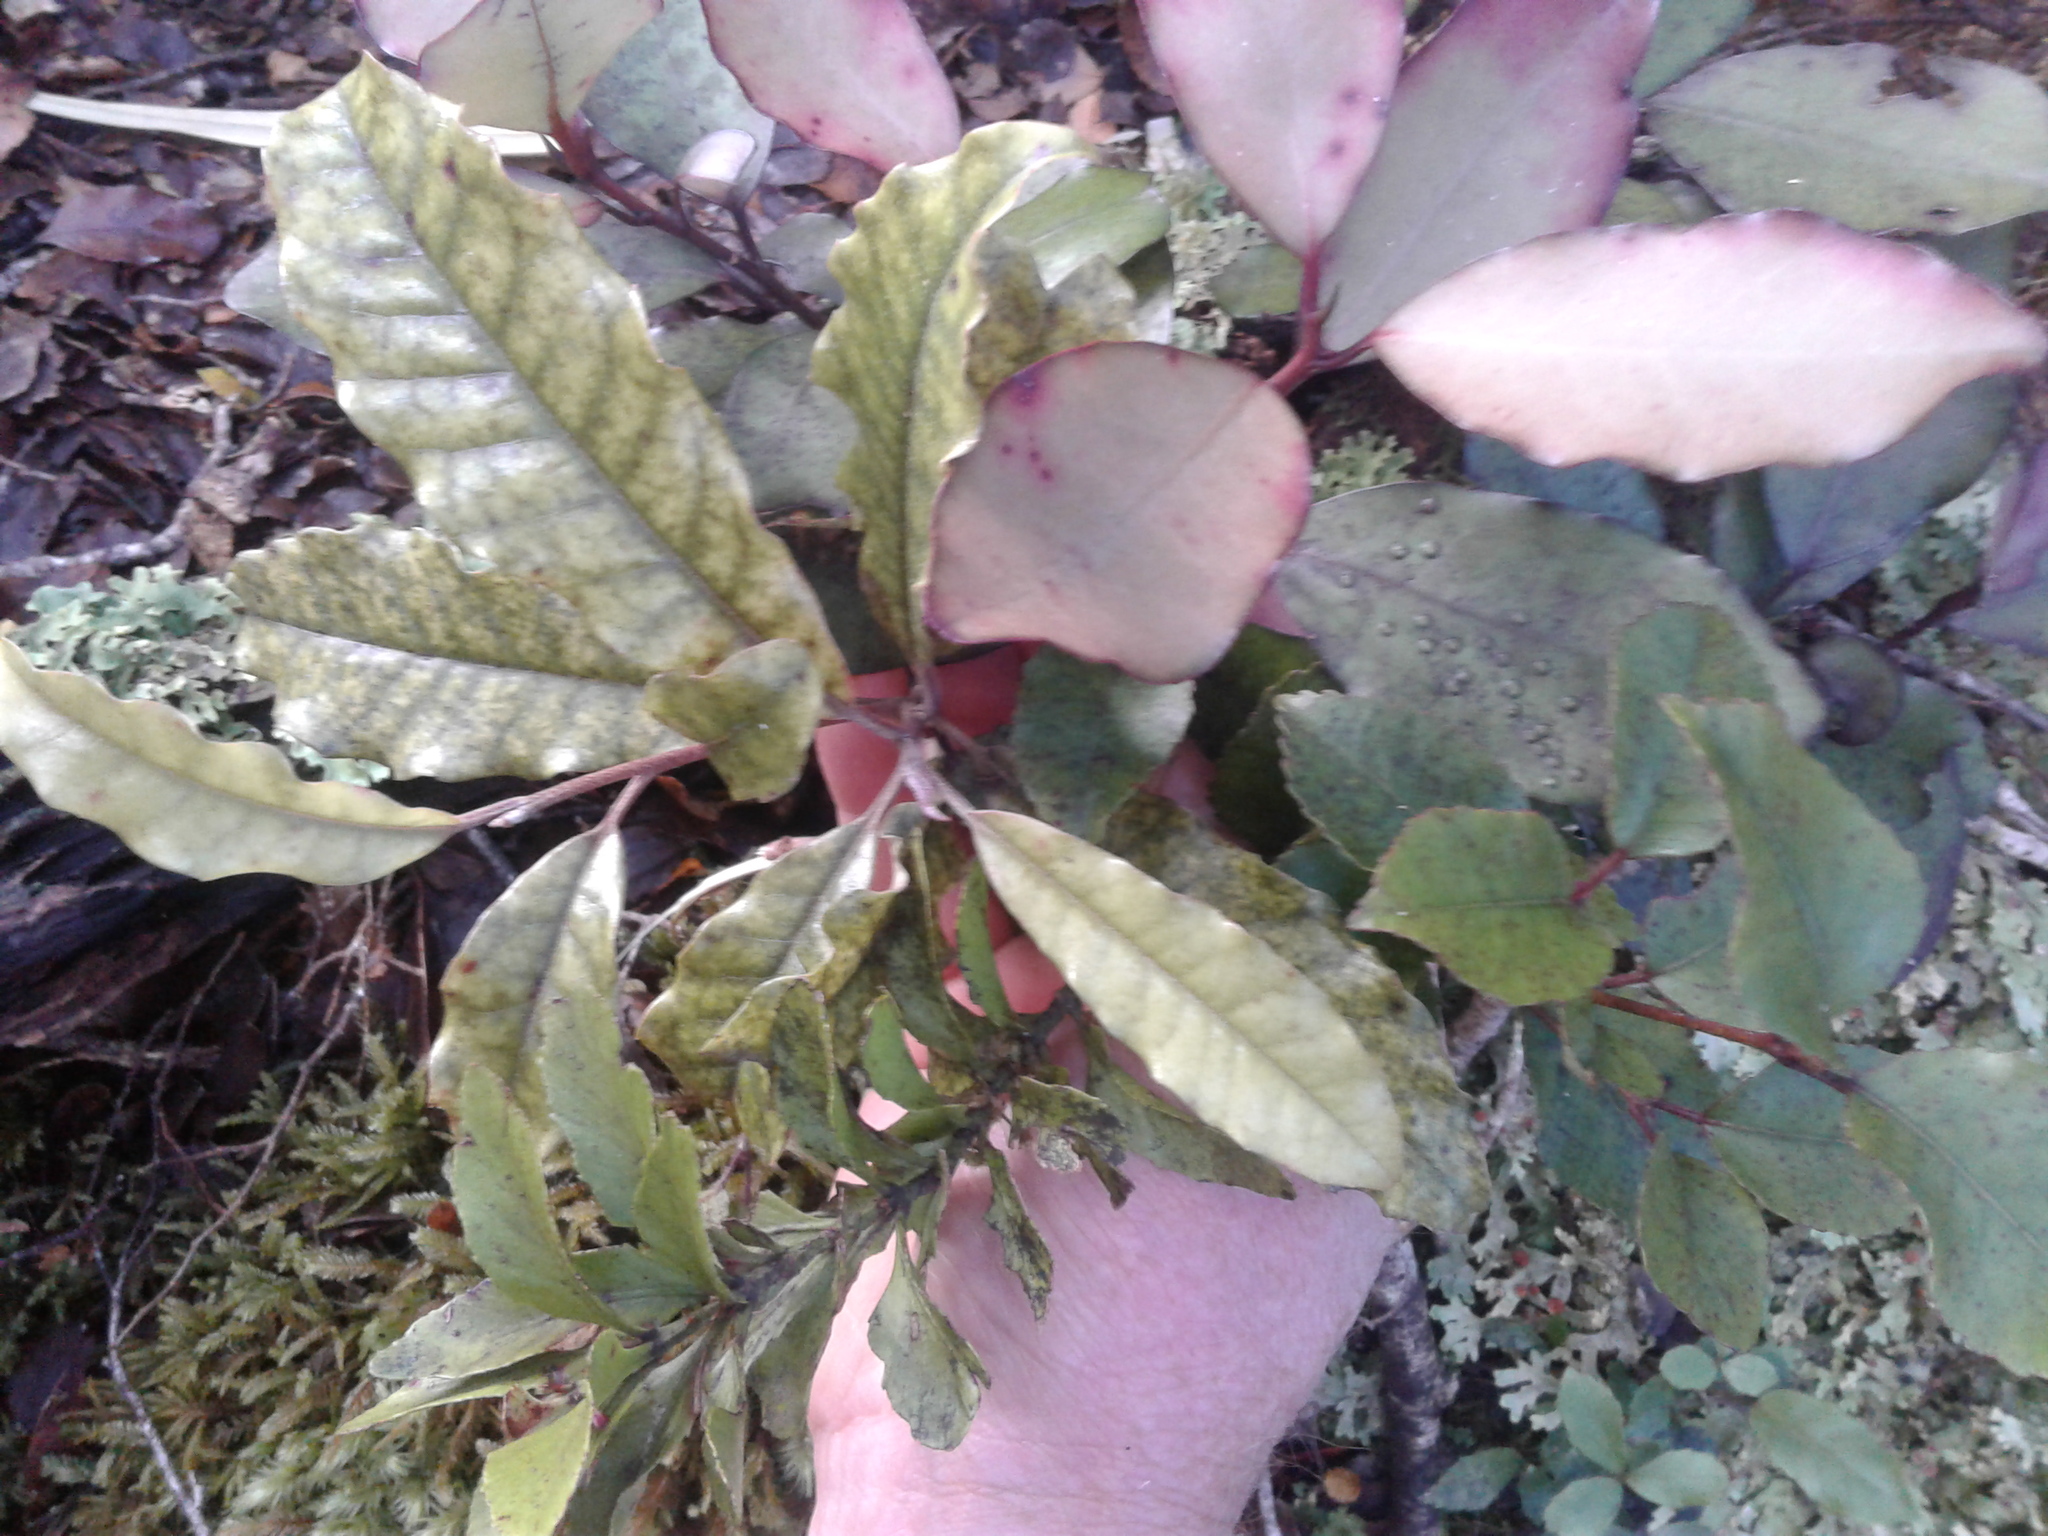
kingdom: Plantae
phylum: Tracheophyta
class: Magnoliopsida
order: Paracryphiales
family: Paracryphiaceae
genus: Quintinia
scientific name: Quintinia serrata
